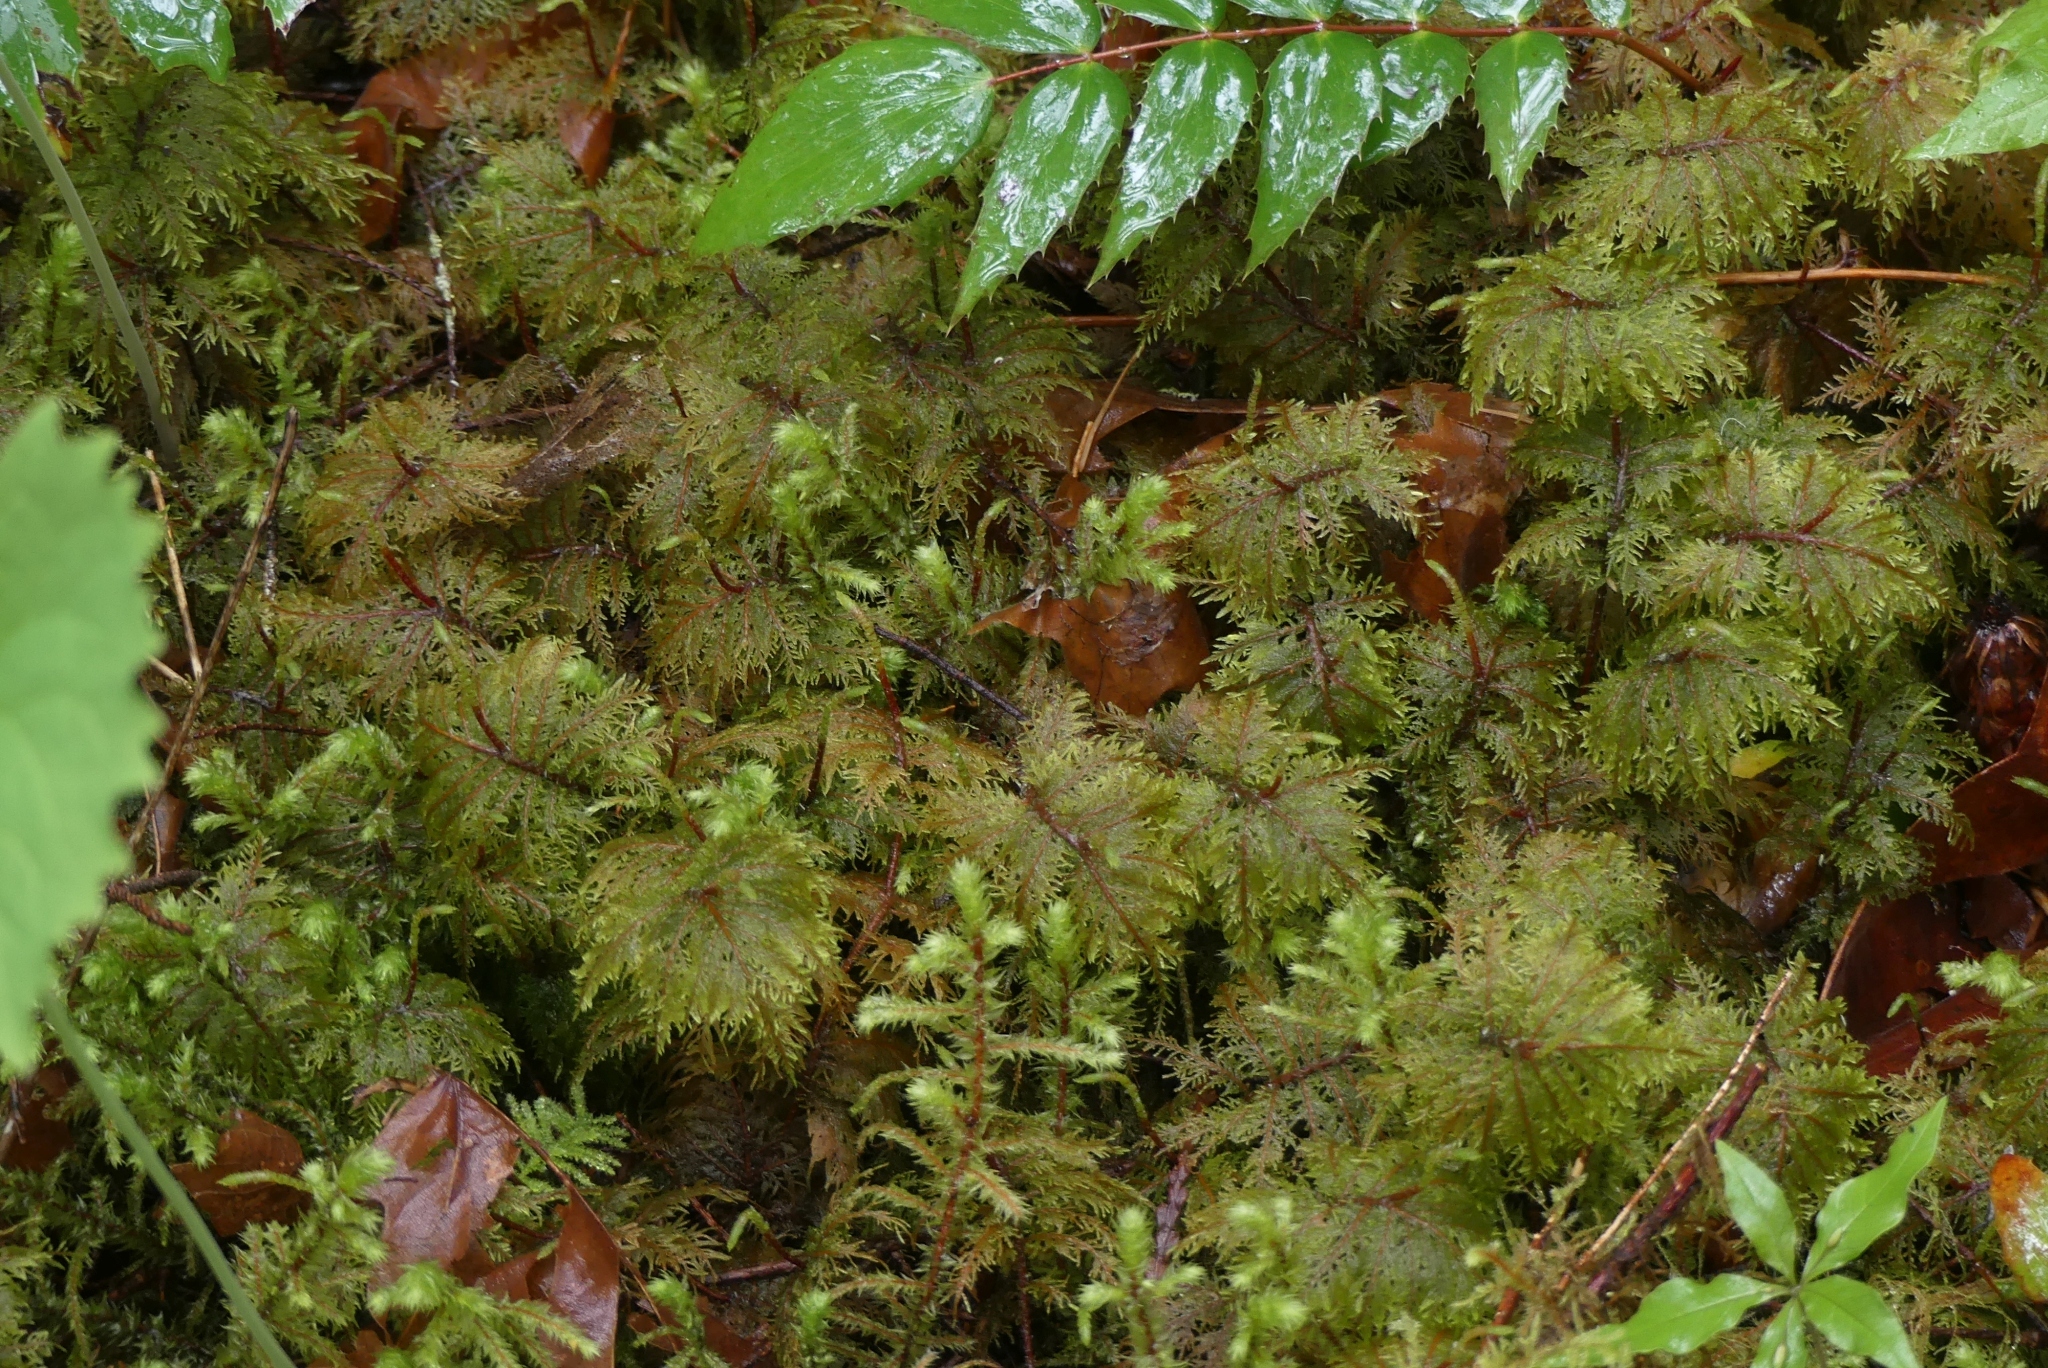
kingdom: Plantae
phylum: Bryophyta
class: Bryopsida
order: Hypnales
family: Hylocomiaceae
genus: Hylocomium
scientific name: Hylocomium splendens
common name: Stairstep moss
